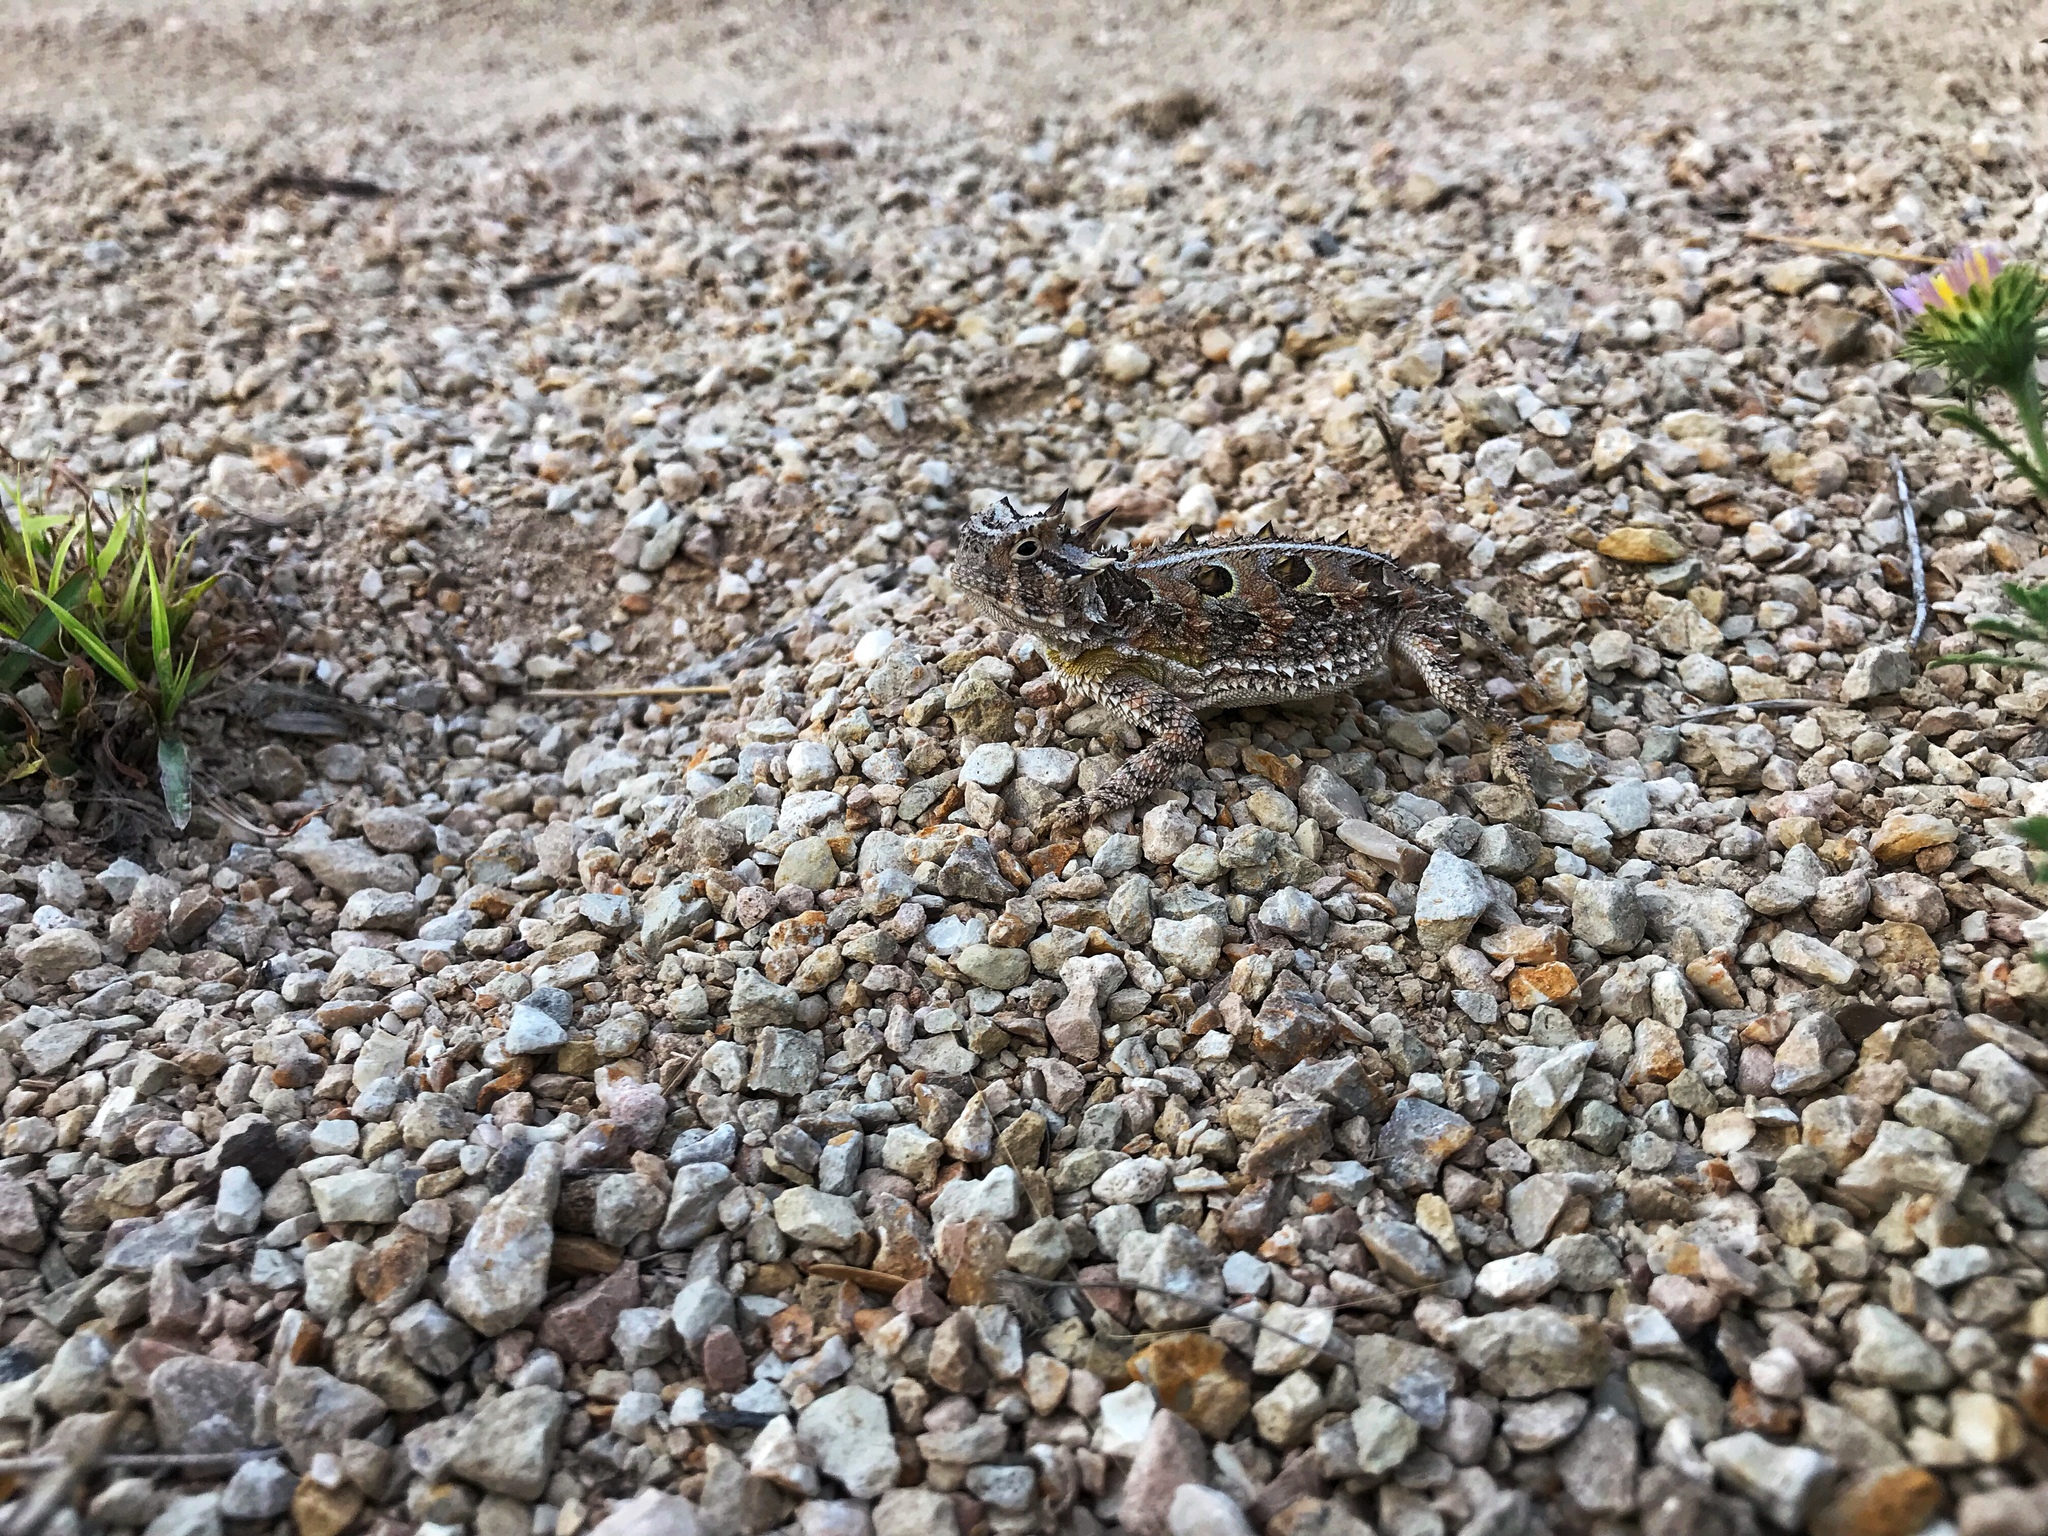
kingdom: Animalia
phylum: Chordata
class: Squamata
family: Phrynosomatidae
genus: Phrynosoma
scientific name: Phrynosoma cornutum
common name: Texas horned lizard
